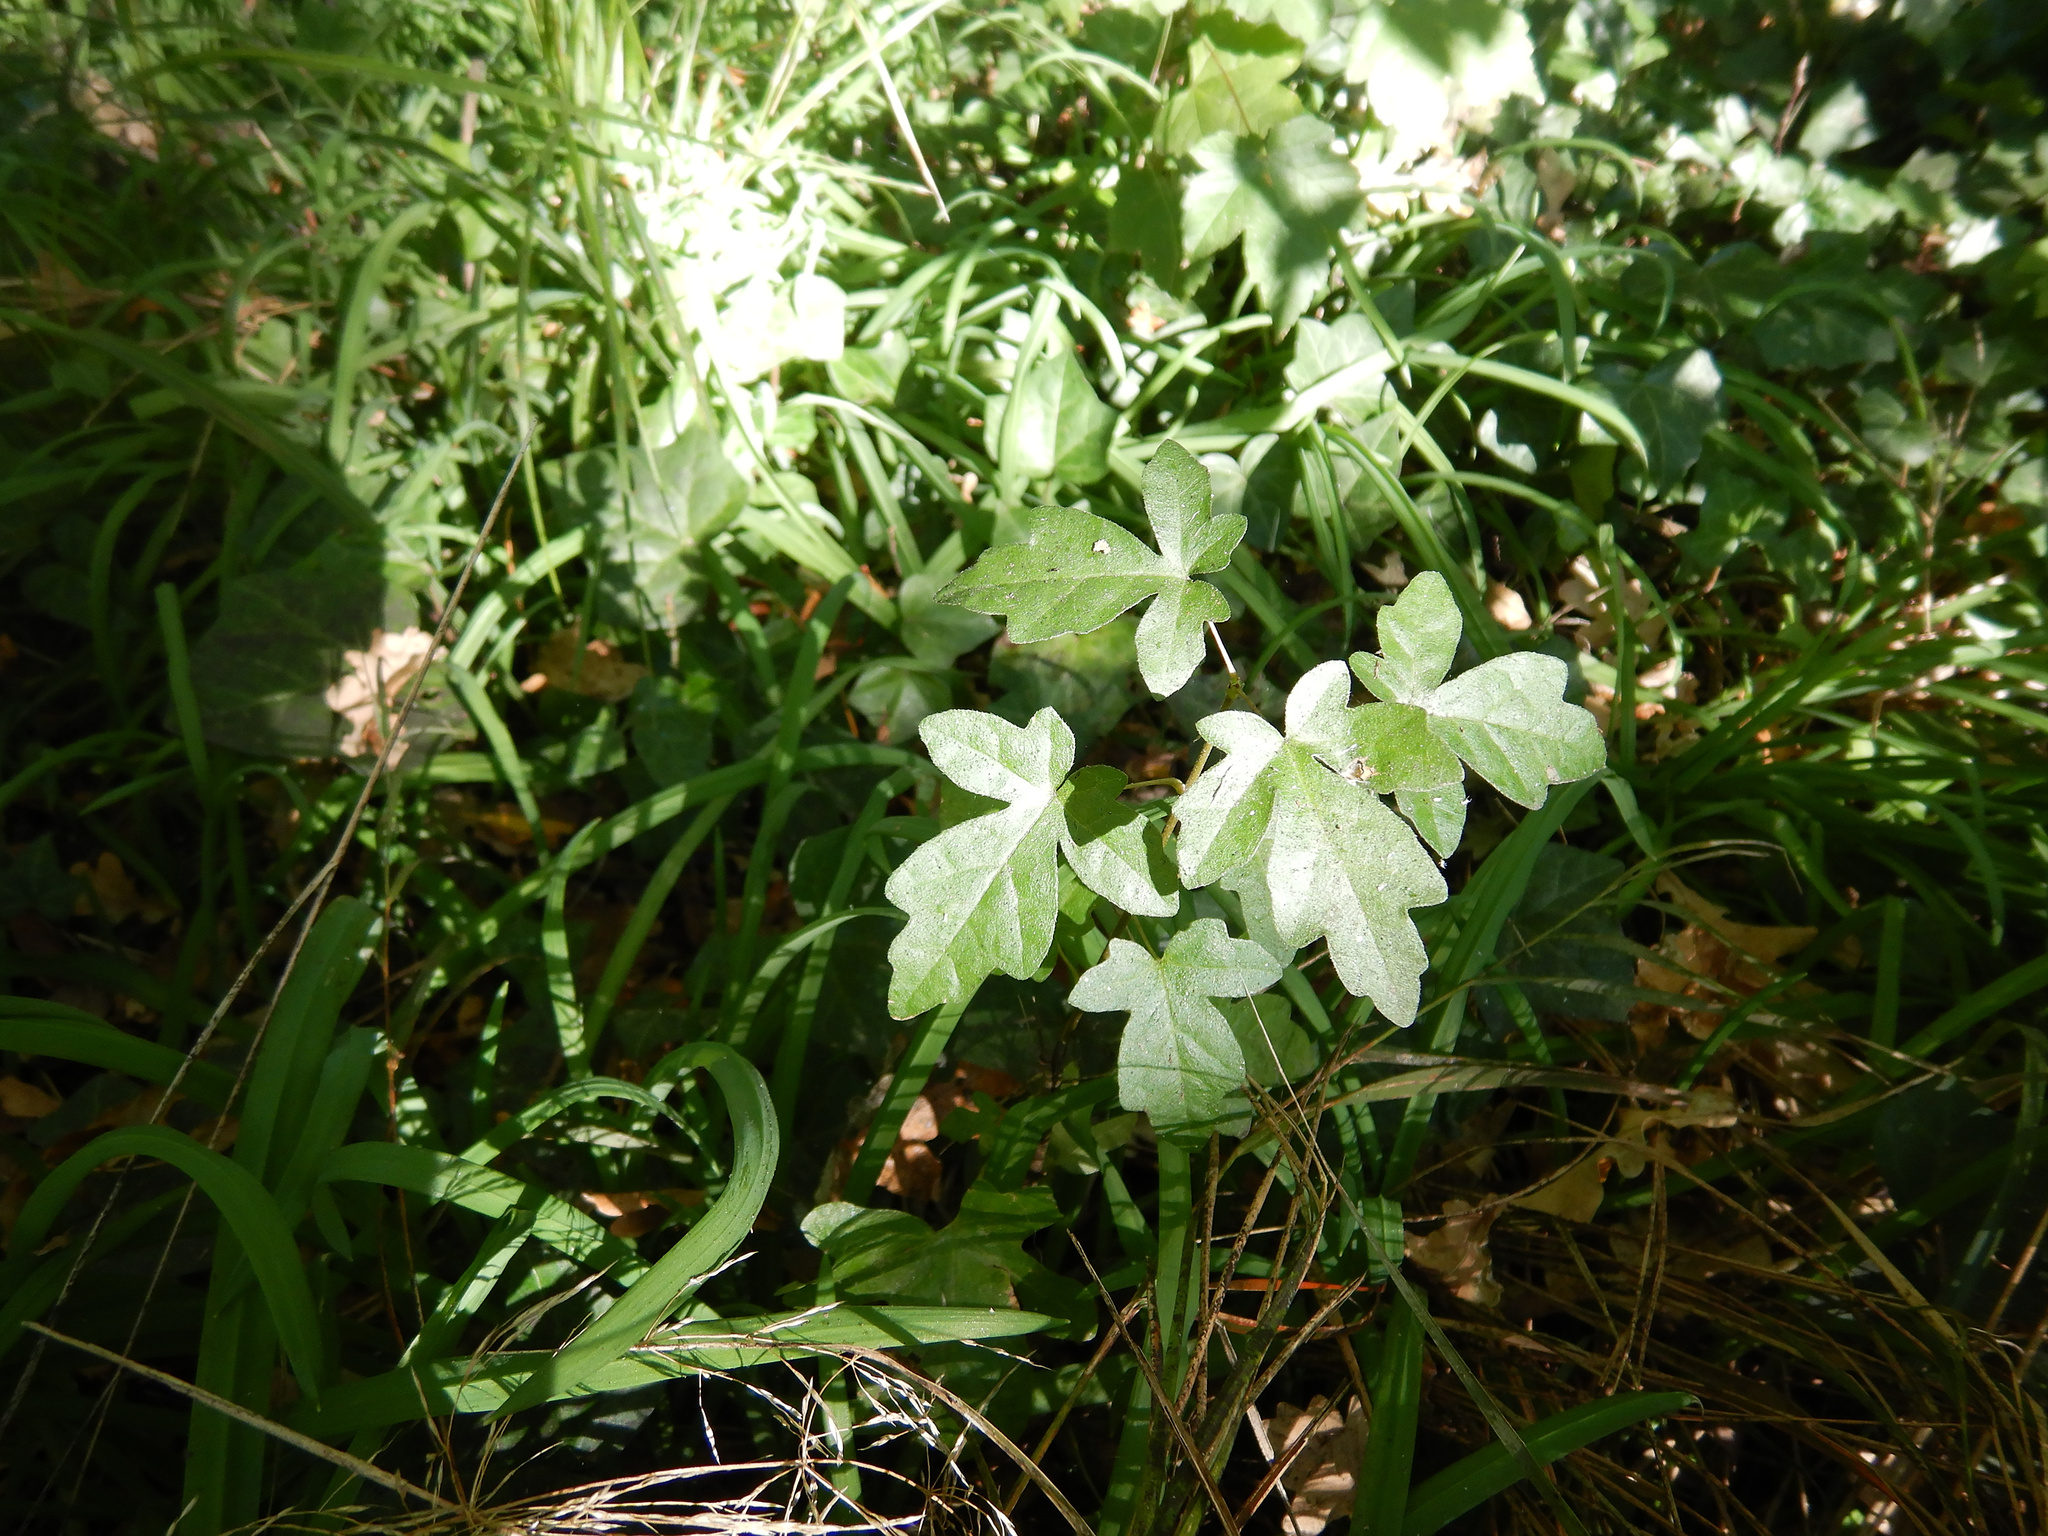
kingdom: Plantae
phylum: Tracheophyta
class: Magnoliopsida
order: Sapindales
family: Sapindaceae
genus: Acer
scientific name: Acer campestre
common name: Field maple
